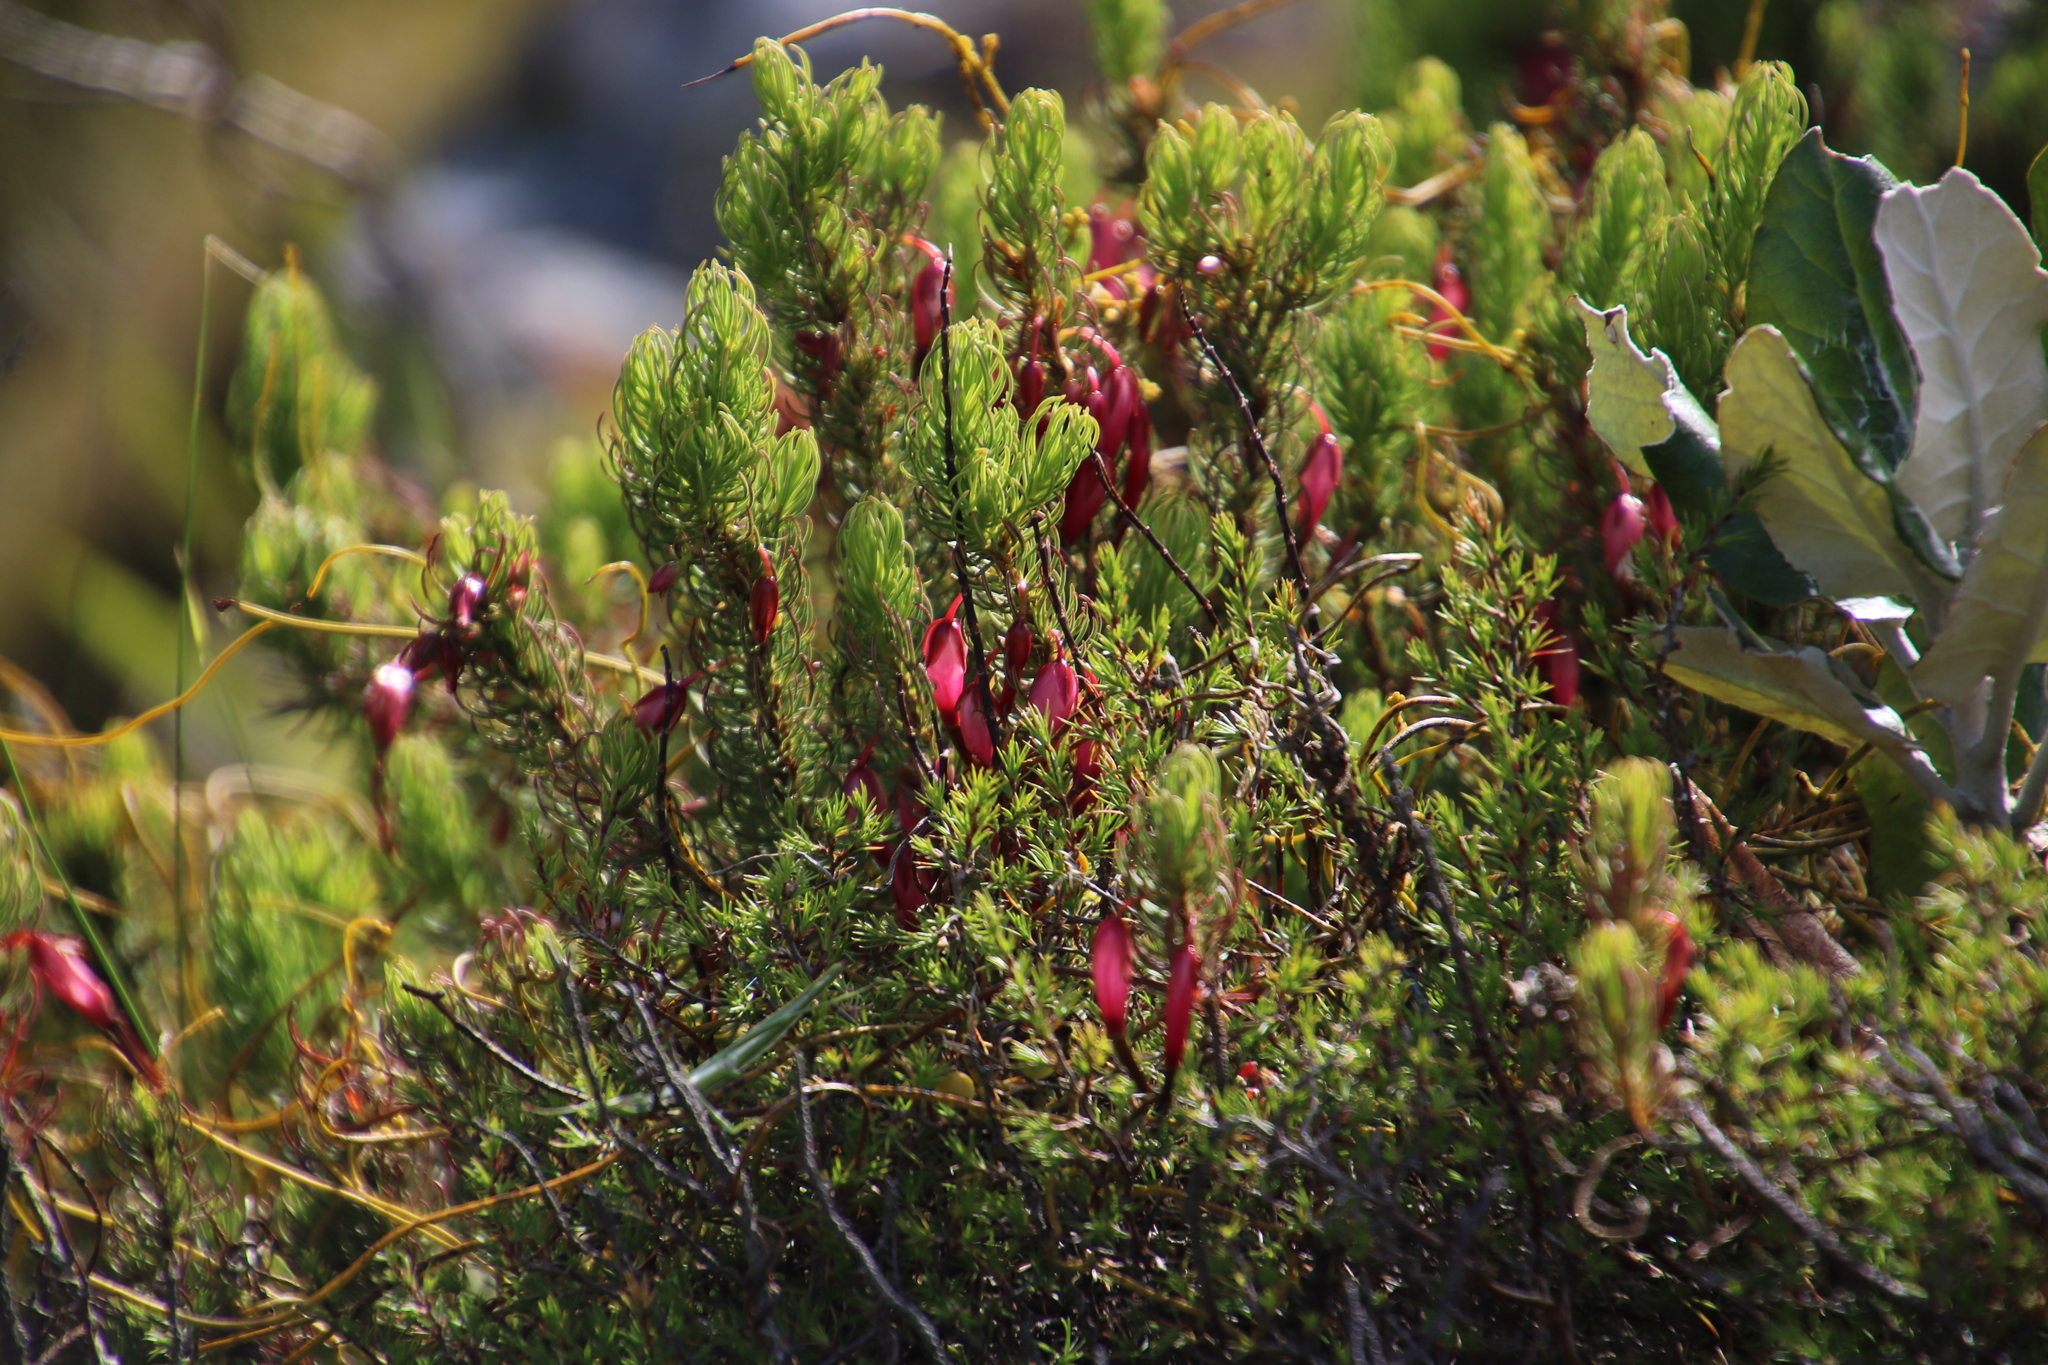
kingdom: Plantae
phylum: Tracheophyta
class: Magnoliopsida
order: Ericales
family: Ericaceae
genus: Erica
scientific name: Erica plukenetii
